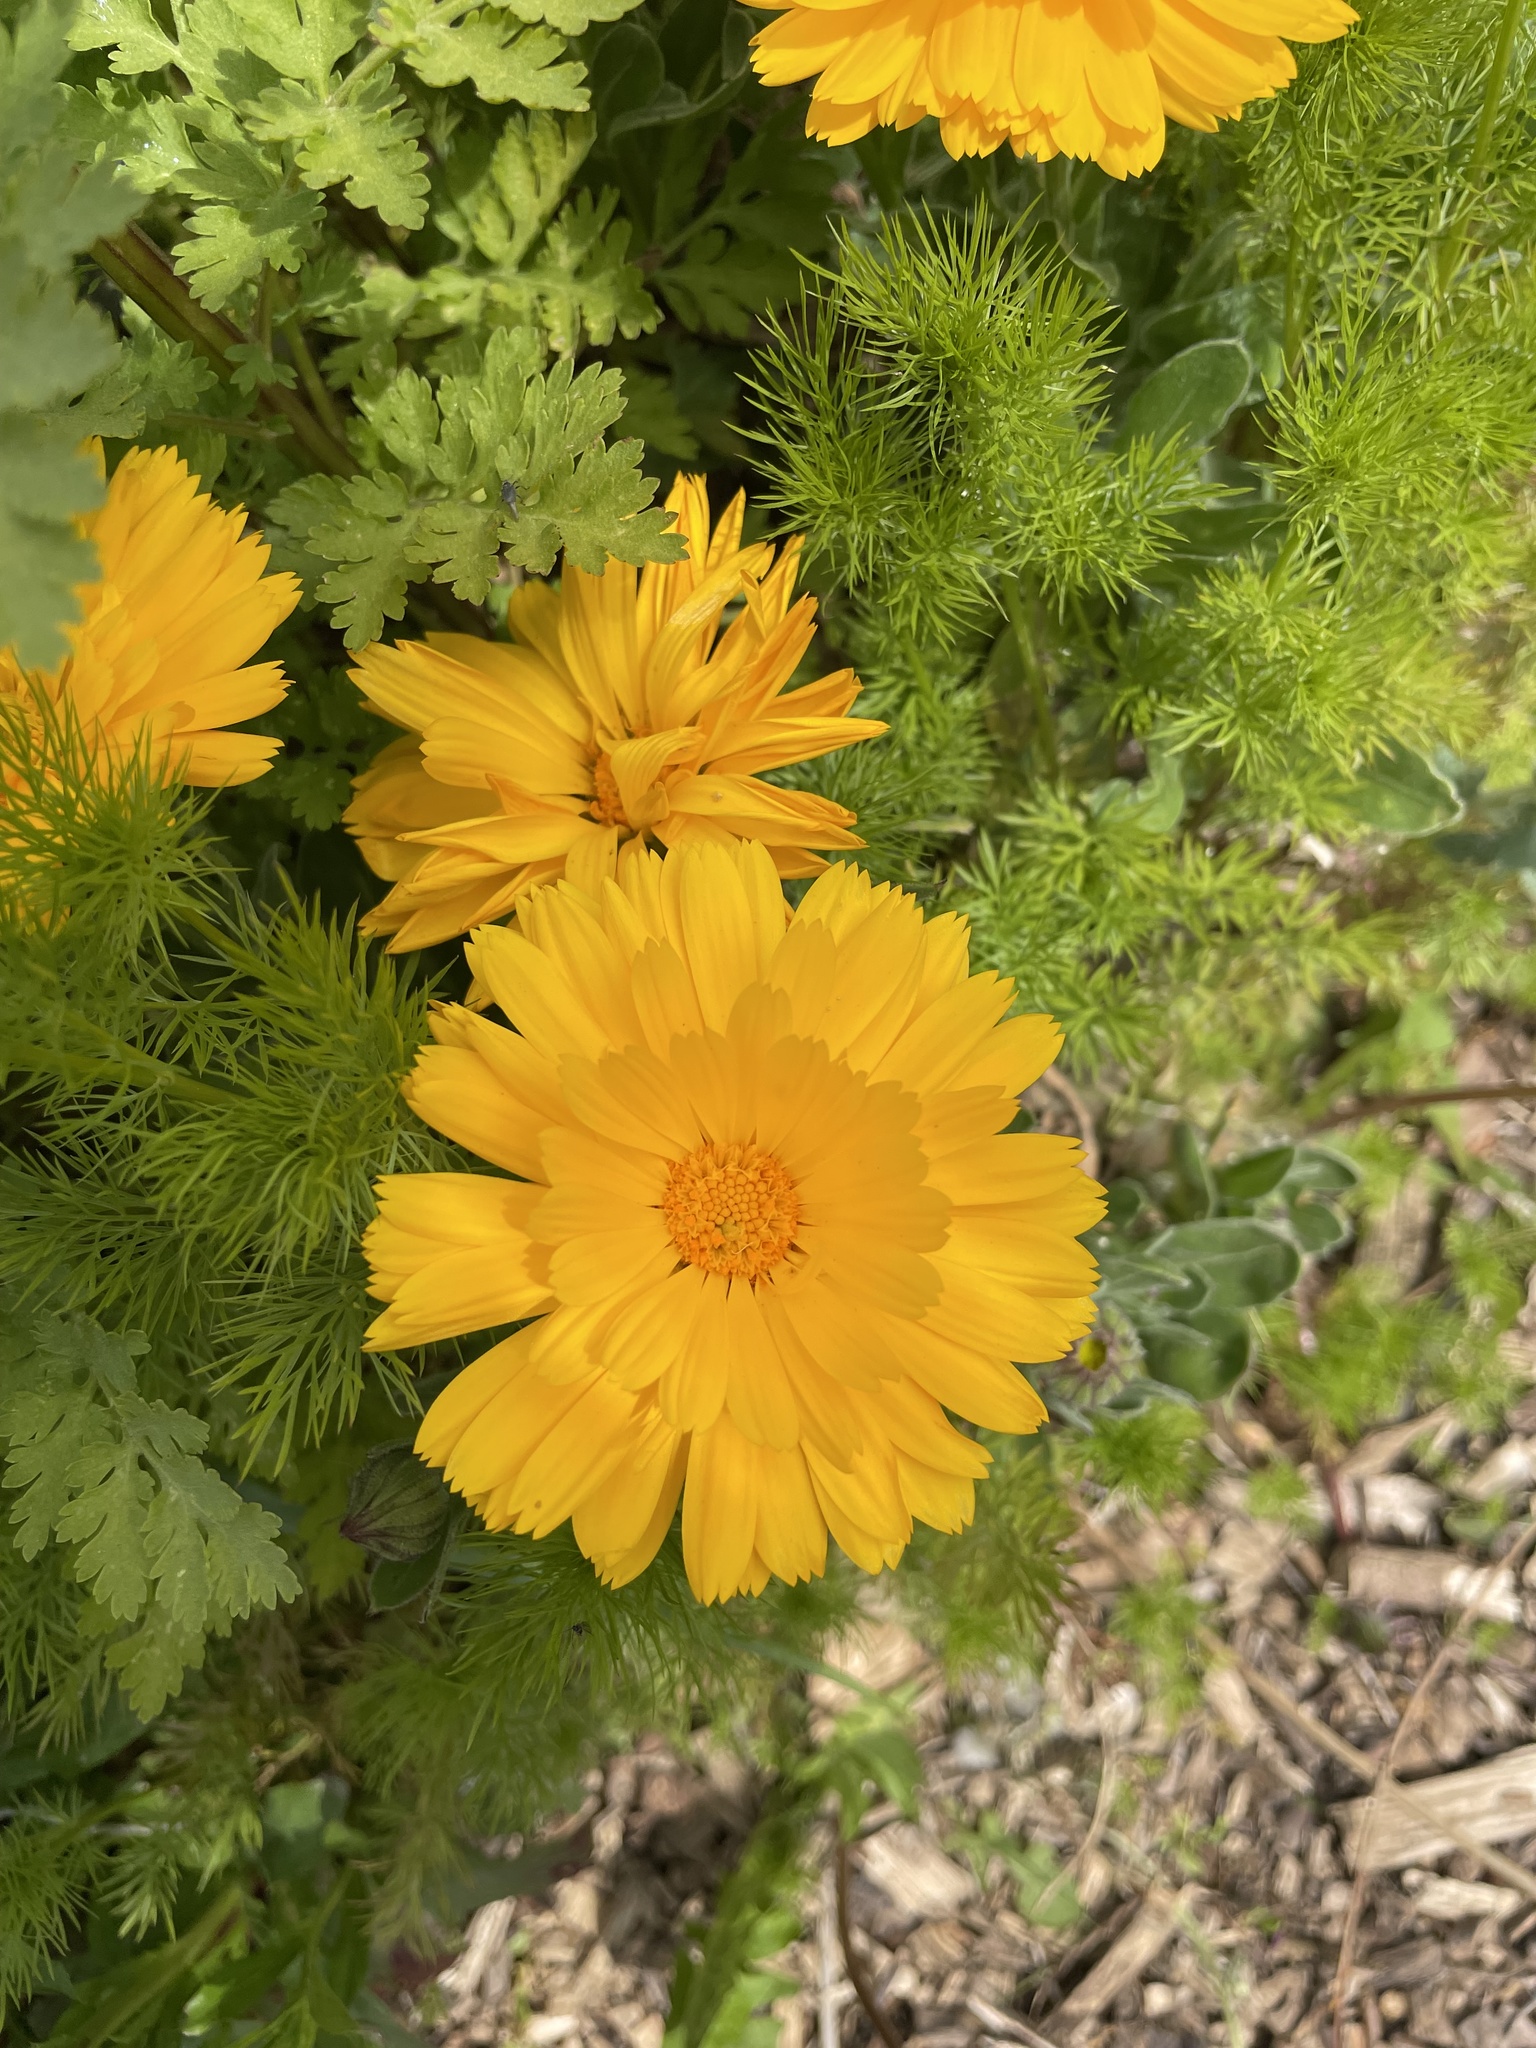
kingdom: Plantae
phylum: Tracheophyta
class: Magnoliopsida
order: Asterales
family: Asteraceae
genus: Calendula
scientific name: Calendula officinalis
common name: Pot marigold
